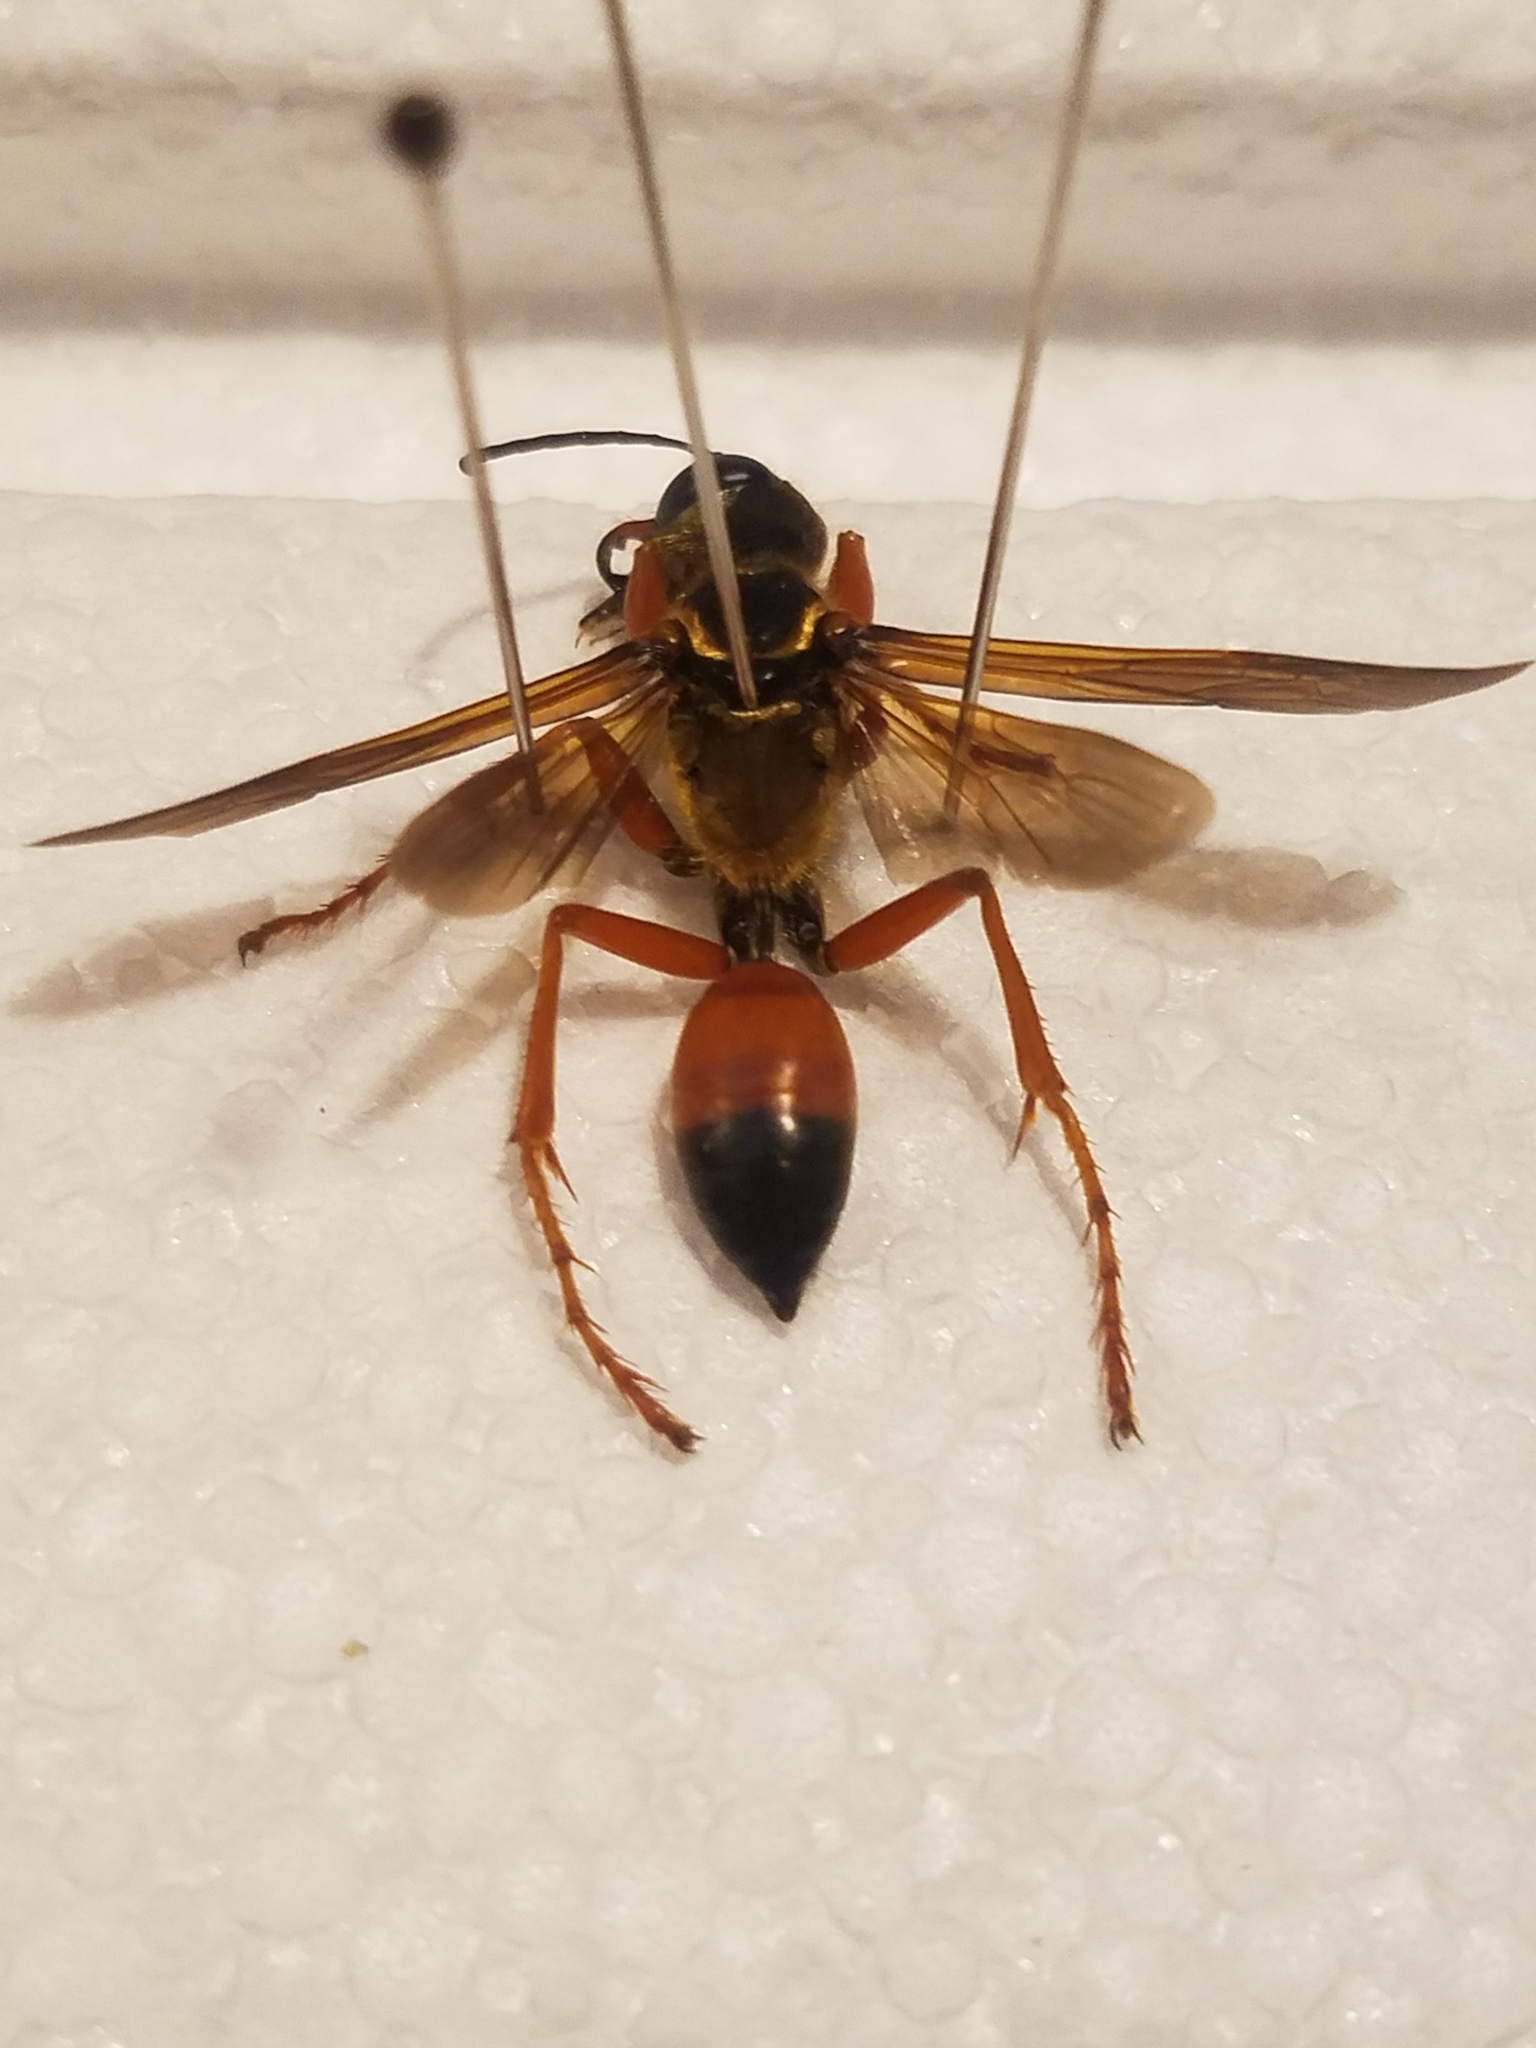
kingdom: Animalia
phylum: Arthropoda
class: Insecta
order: Hymenoptera
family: Sphecidae
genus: Sphex
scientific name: Sphex ichneumoneus
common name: Great golden digger wasp
